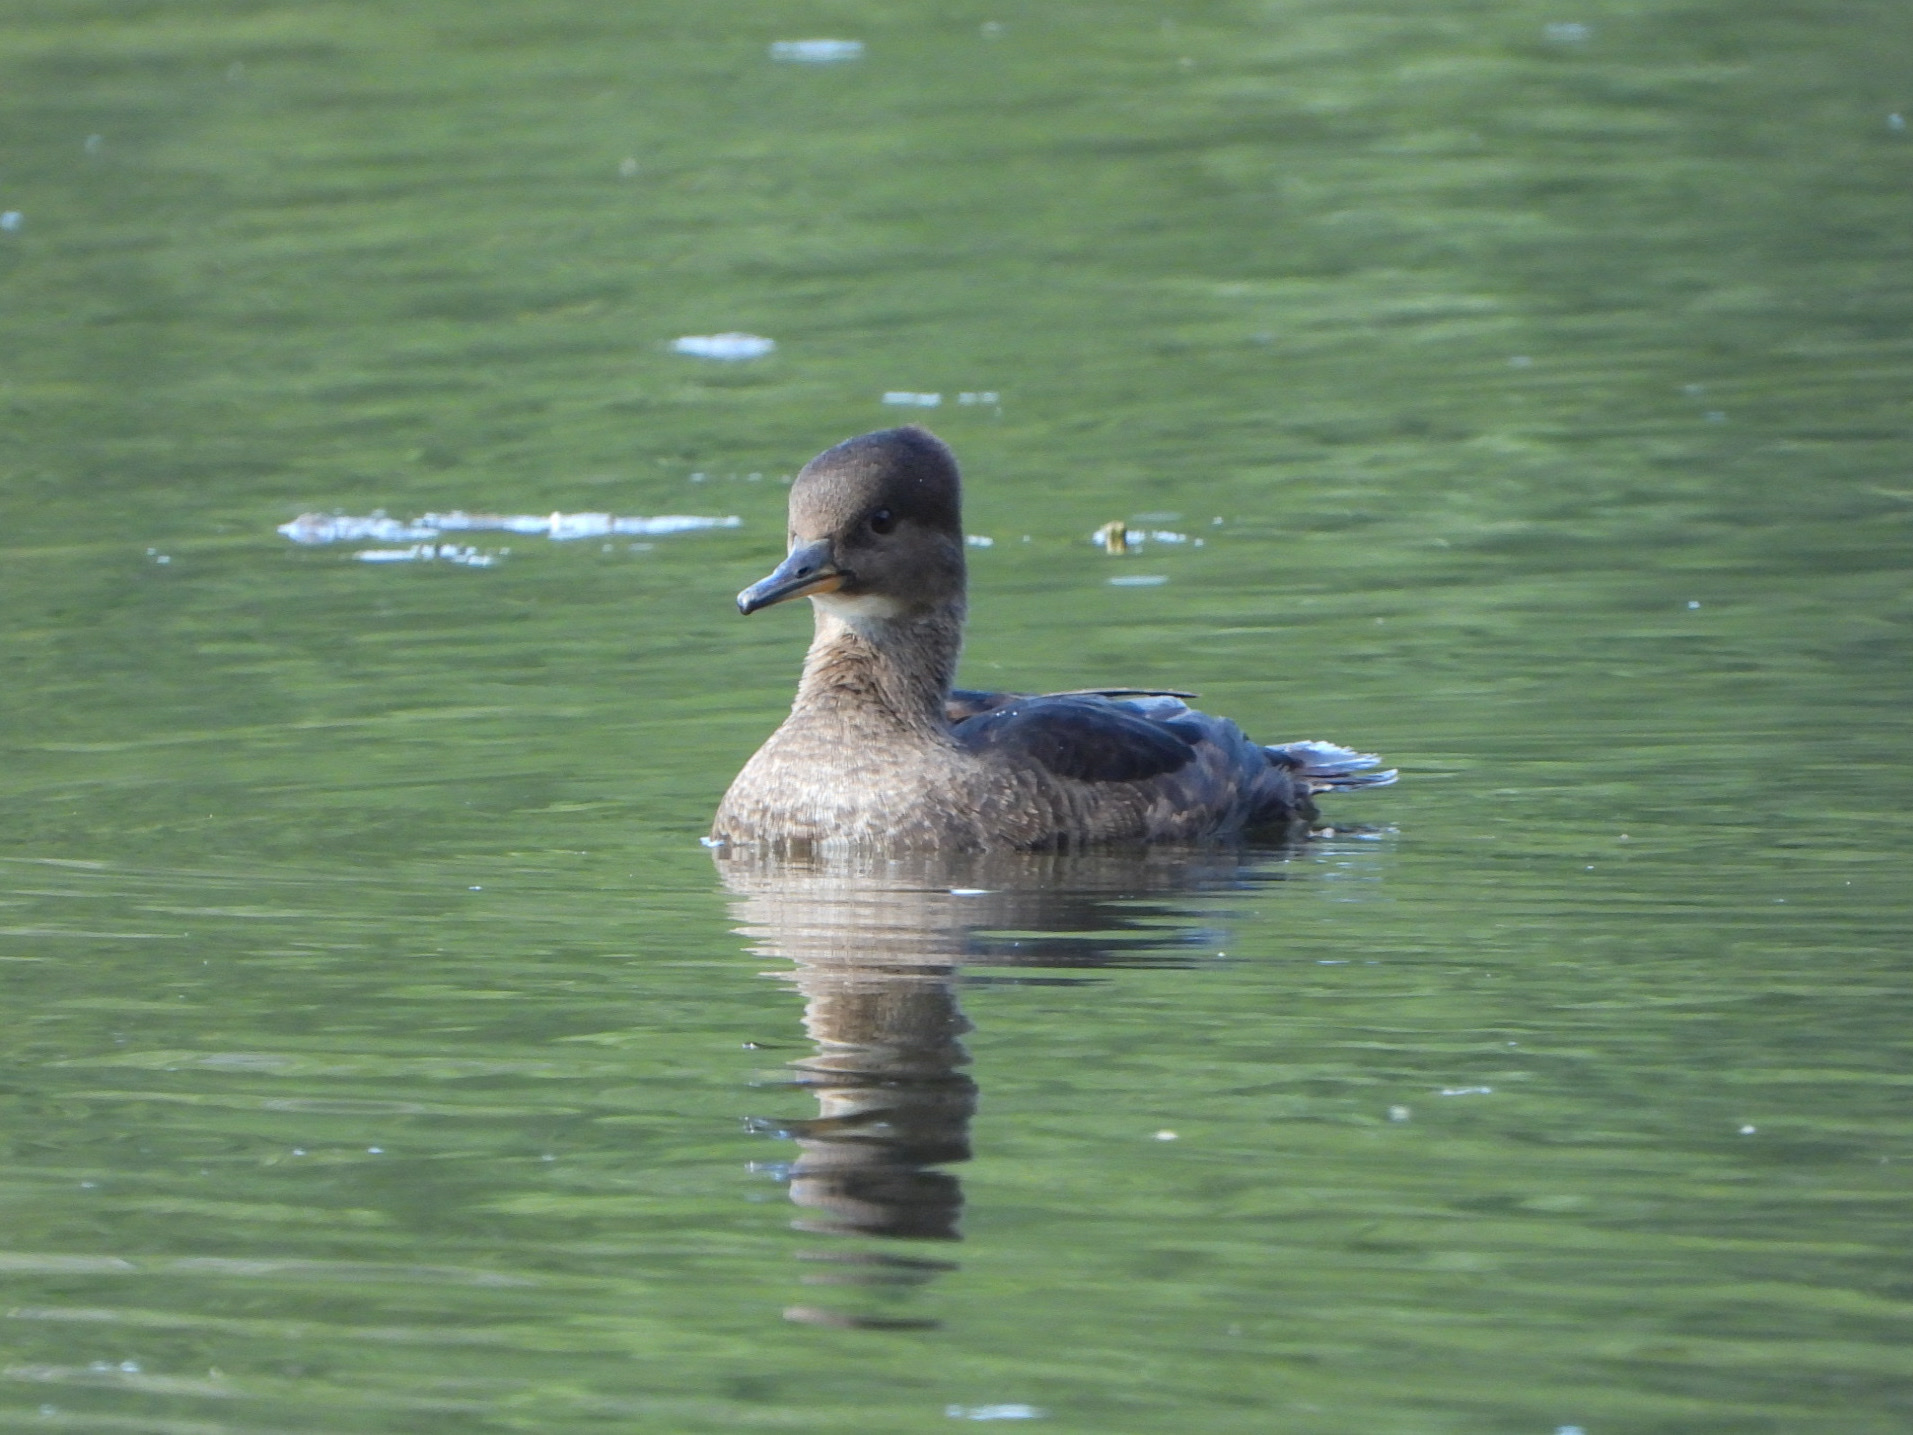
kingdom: Animalia
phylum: Chordata
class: Aves
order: Anseriformes
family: Anatidae
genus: Lophodytes
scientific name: Lophodytes cucullatus
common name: Hooded merganser
